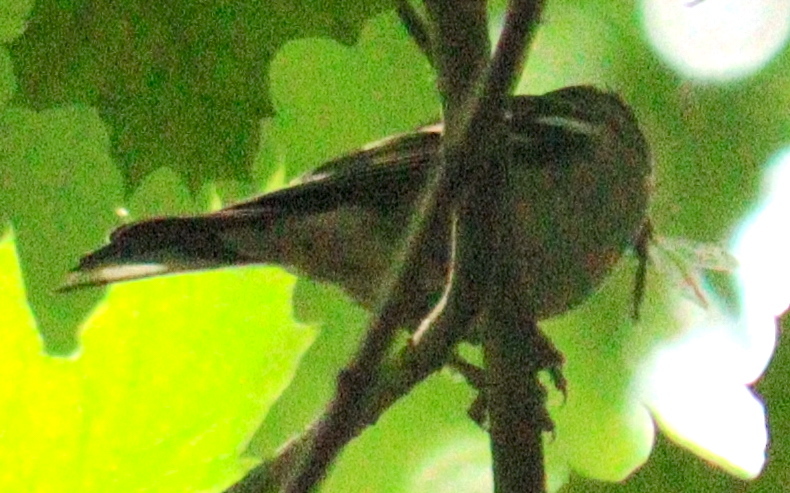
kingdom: Animalia
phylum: Chordata
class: Aves
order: Passeriformes
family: Fringillidae
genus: Fringilla
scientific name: Fringilla coelebs
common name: Common chaffinch
